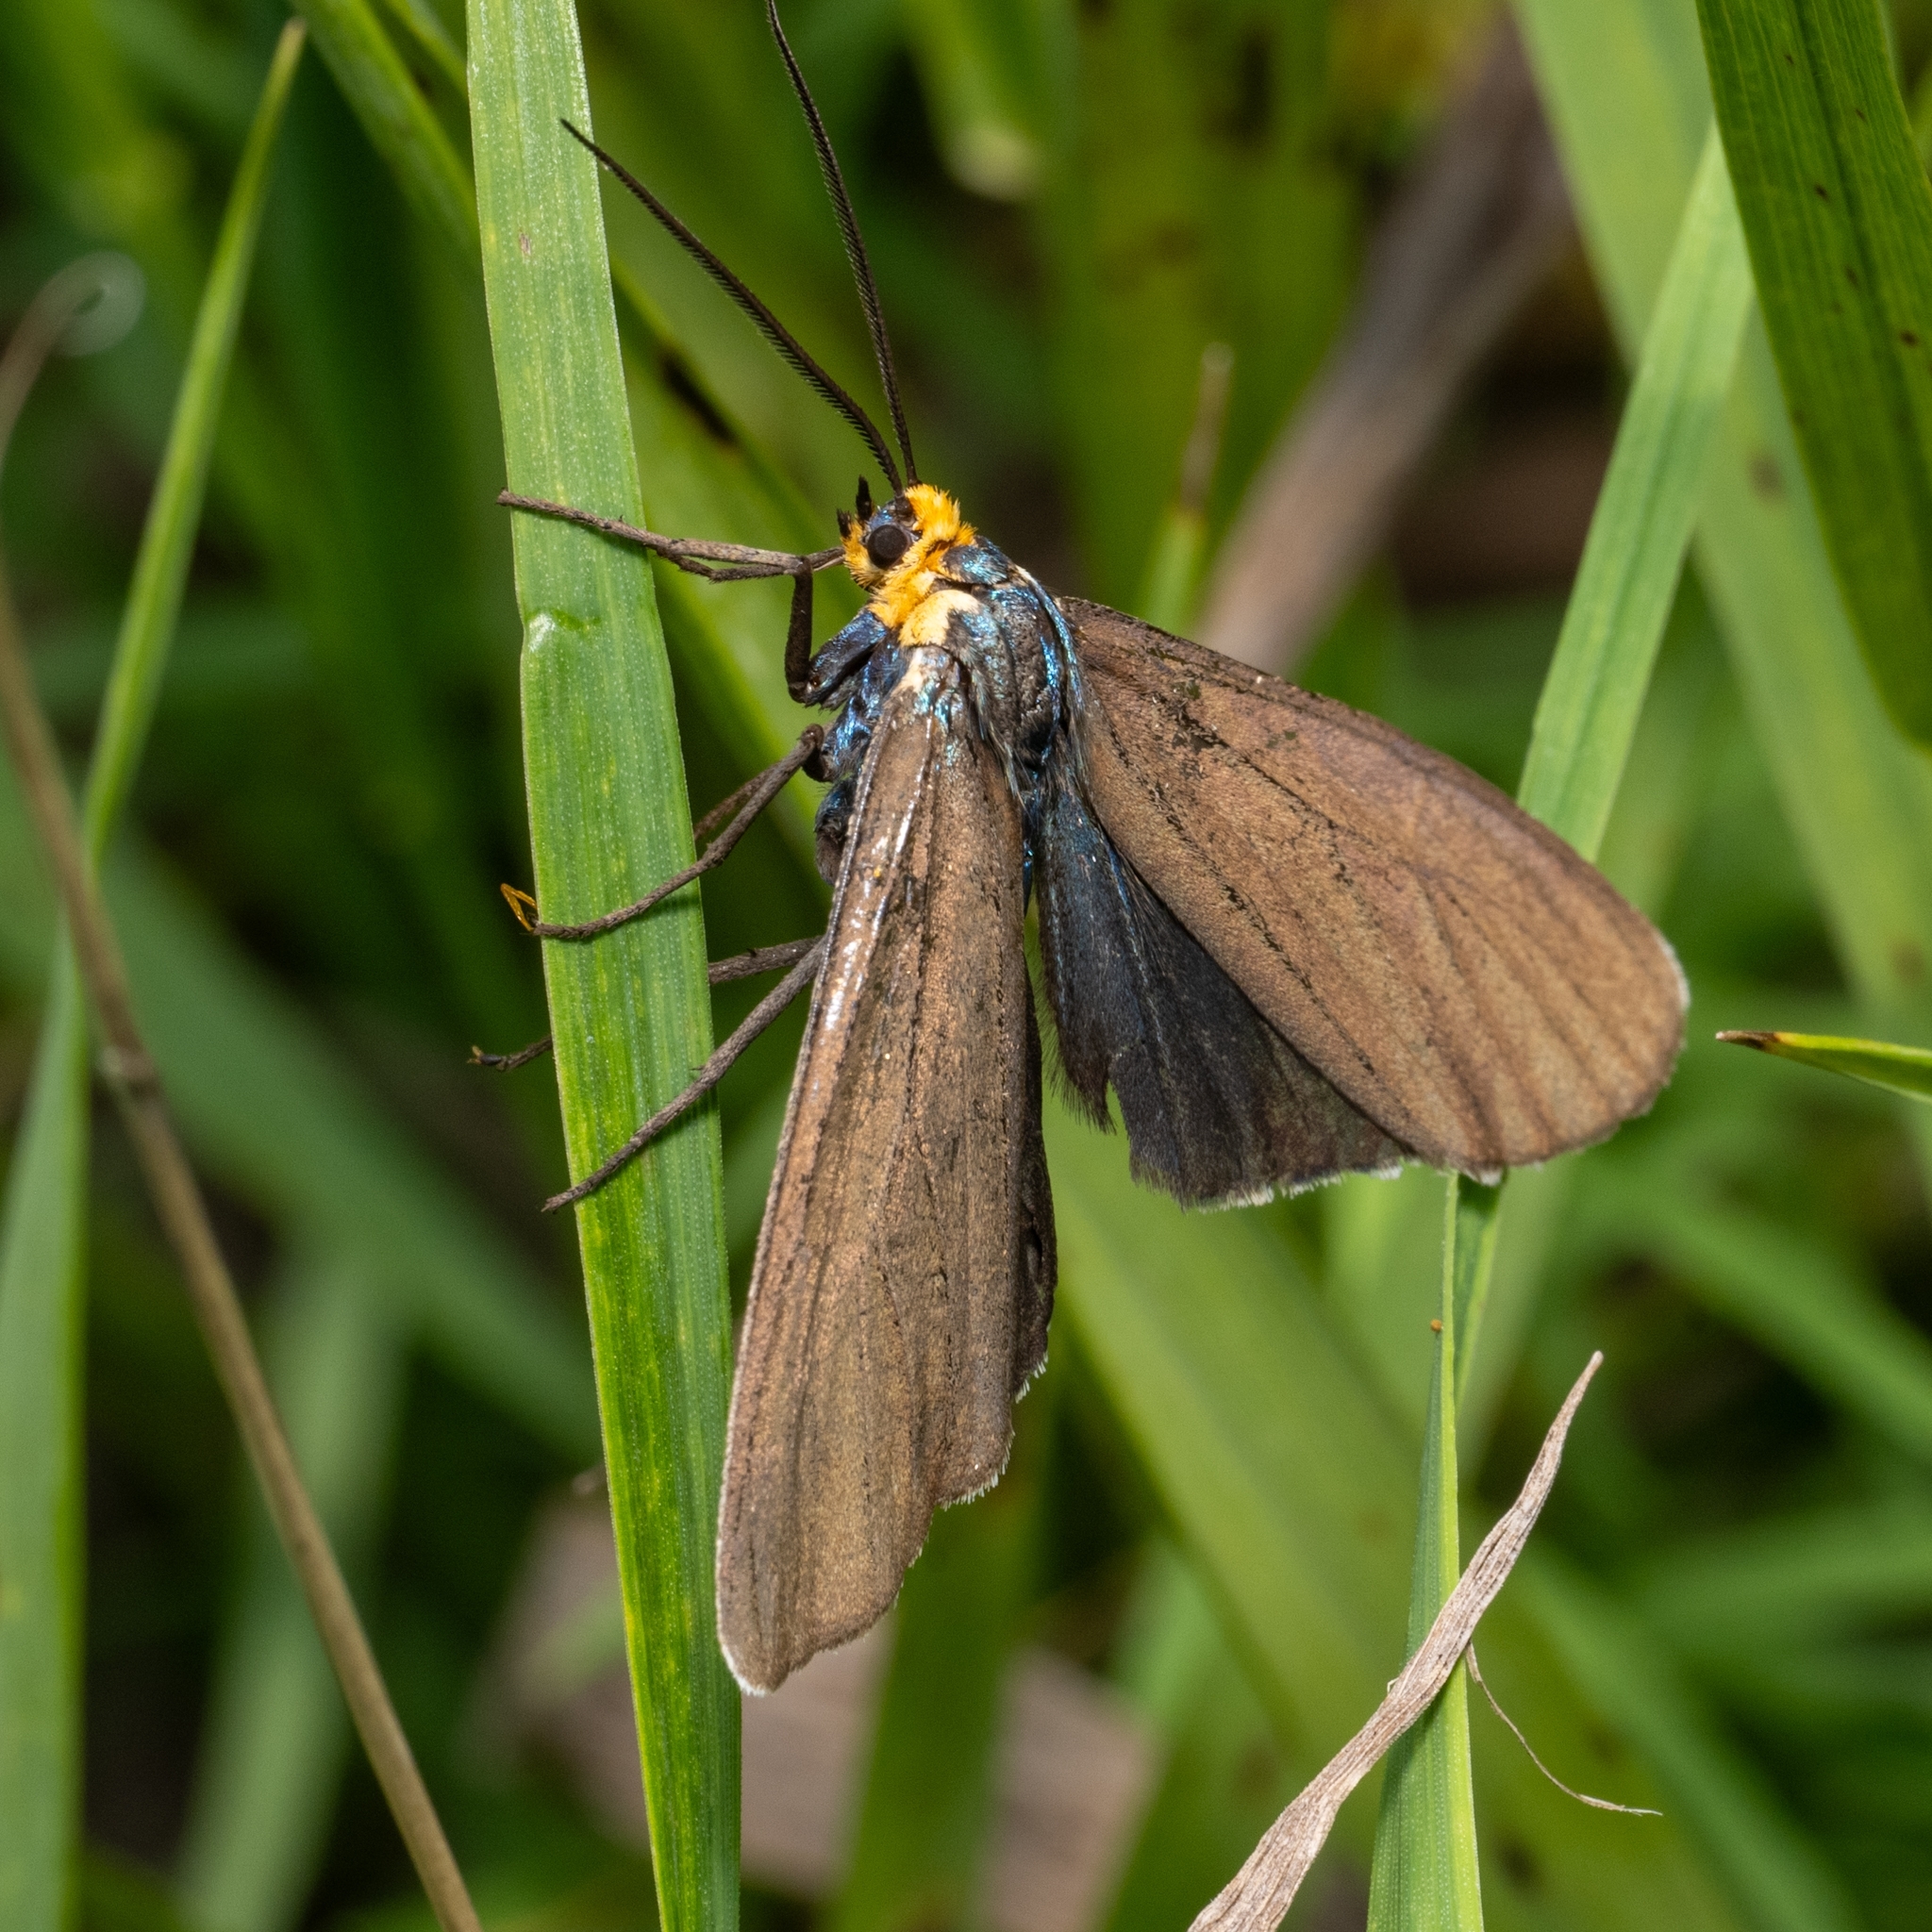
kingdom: Animalia
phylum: Arthropoda
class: Insecta
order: Lepidoptera
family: Erebidae
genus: Ctenucha
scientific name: Ctenucha virginica
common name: Virginia ctenucha moth
